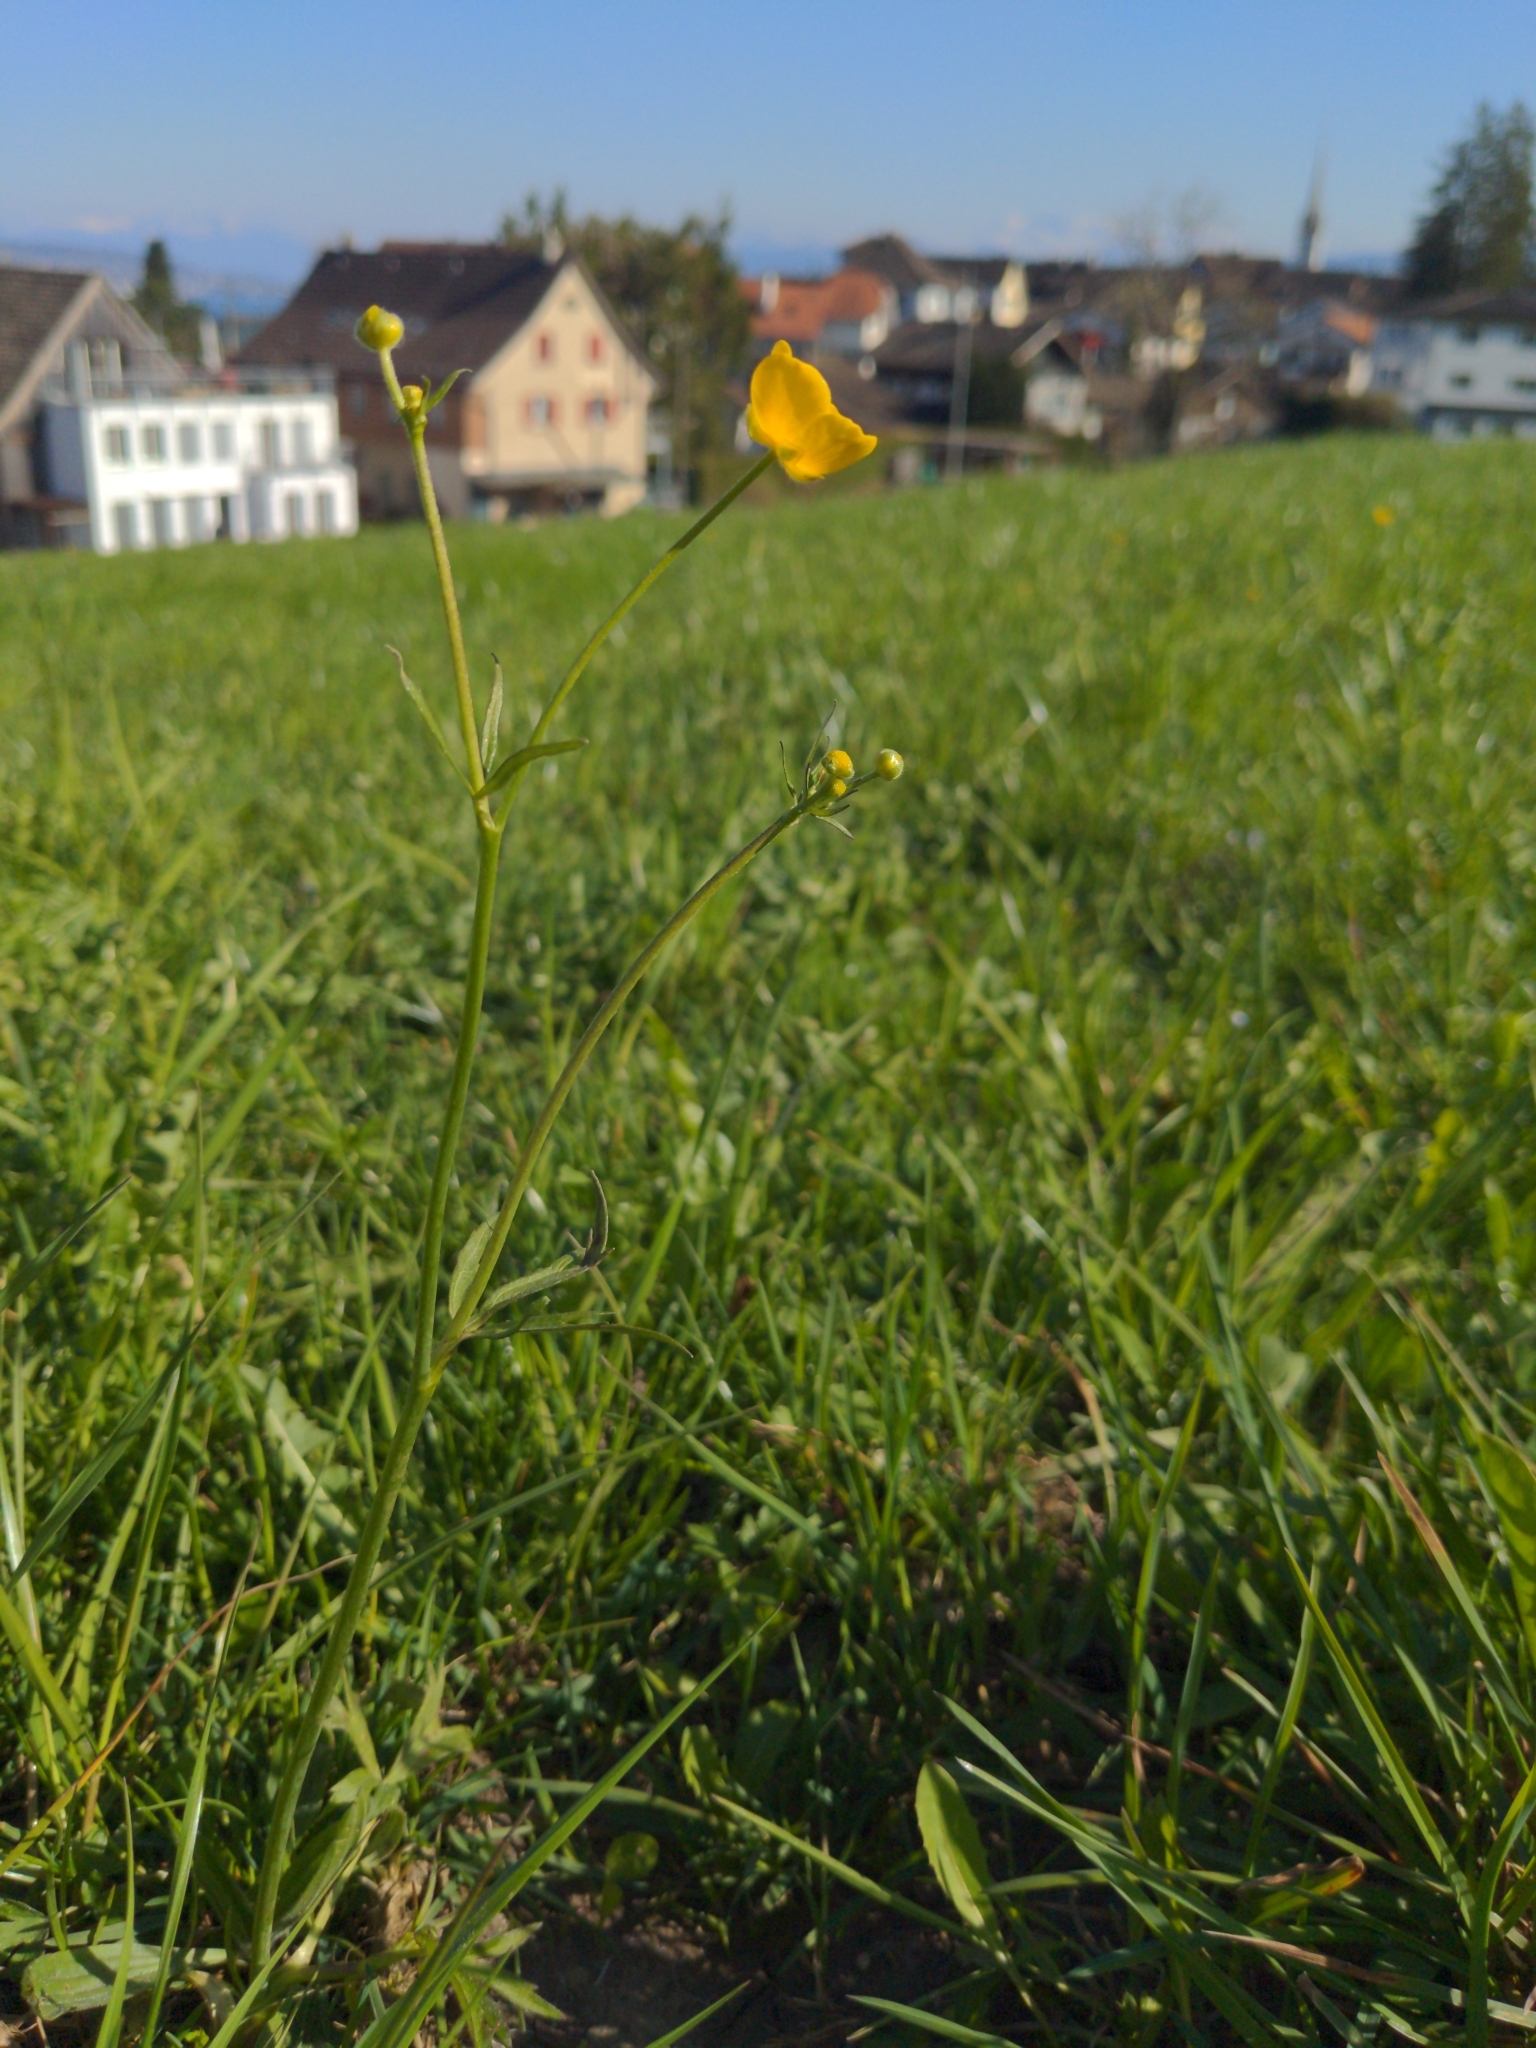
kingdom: Plantae
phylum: Tracheophyta
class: Magnoliopsida
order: Ranunculales
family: Ranunculaceae
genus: Ranunculus
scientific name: Ranunculus acris
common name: Meadow buttercup
